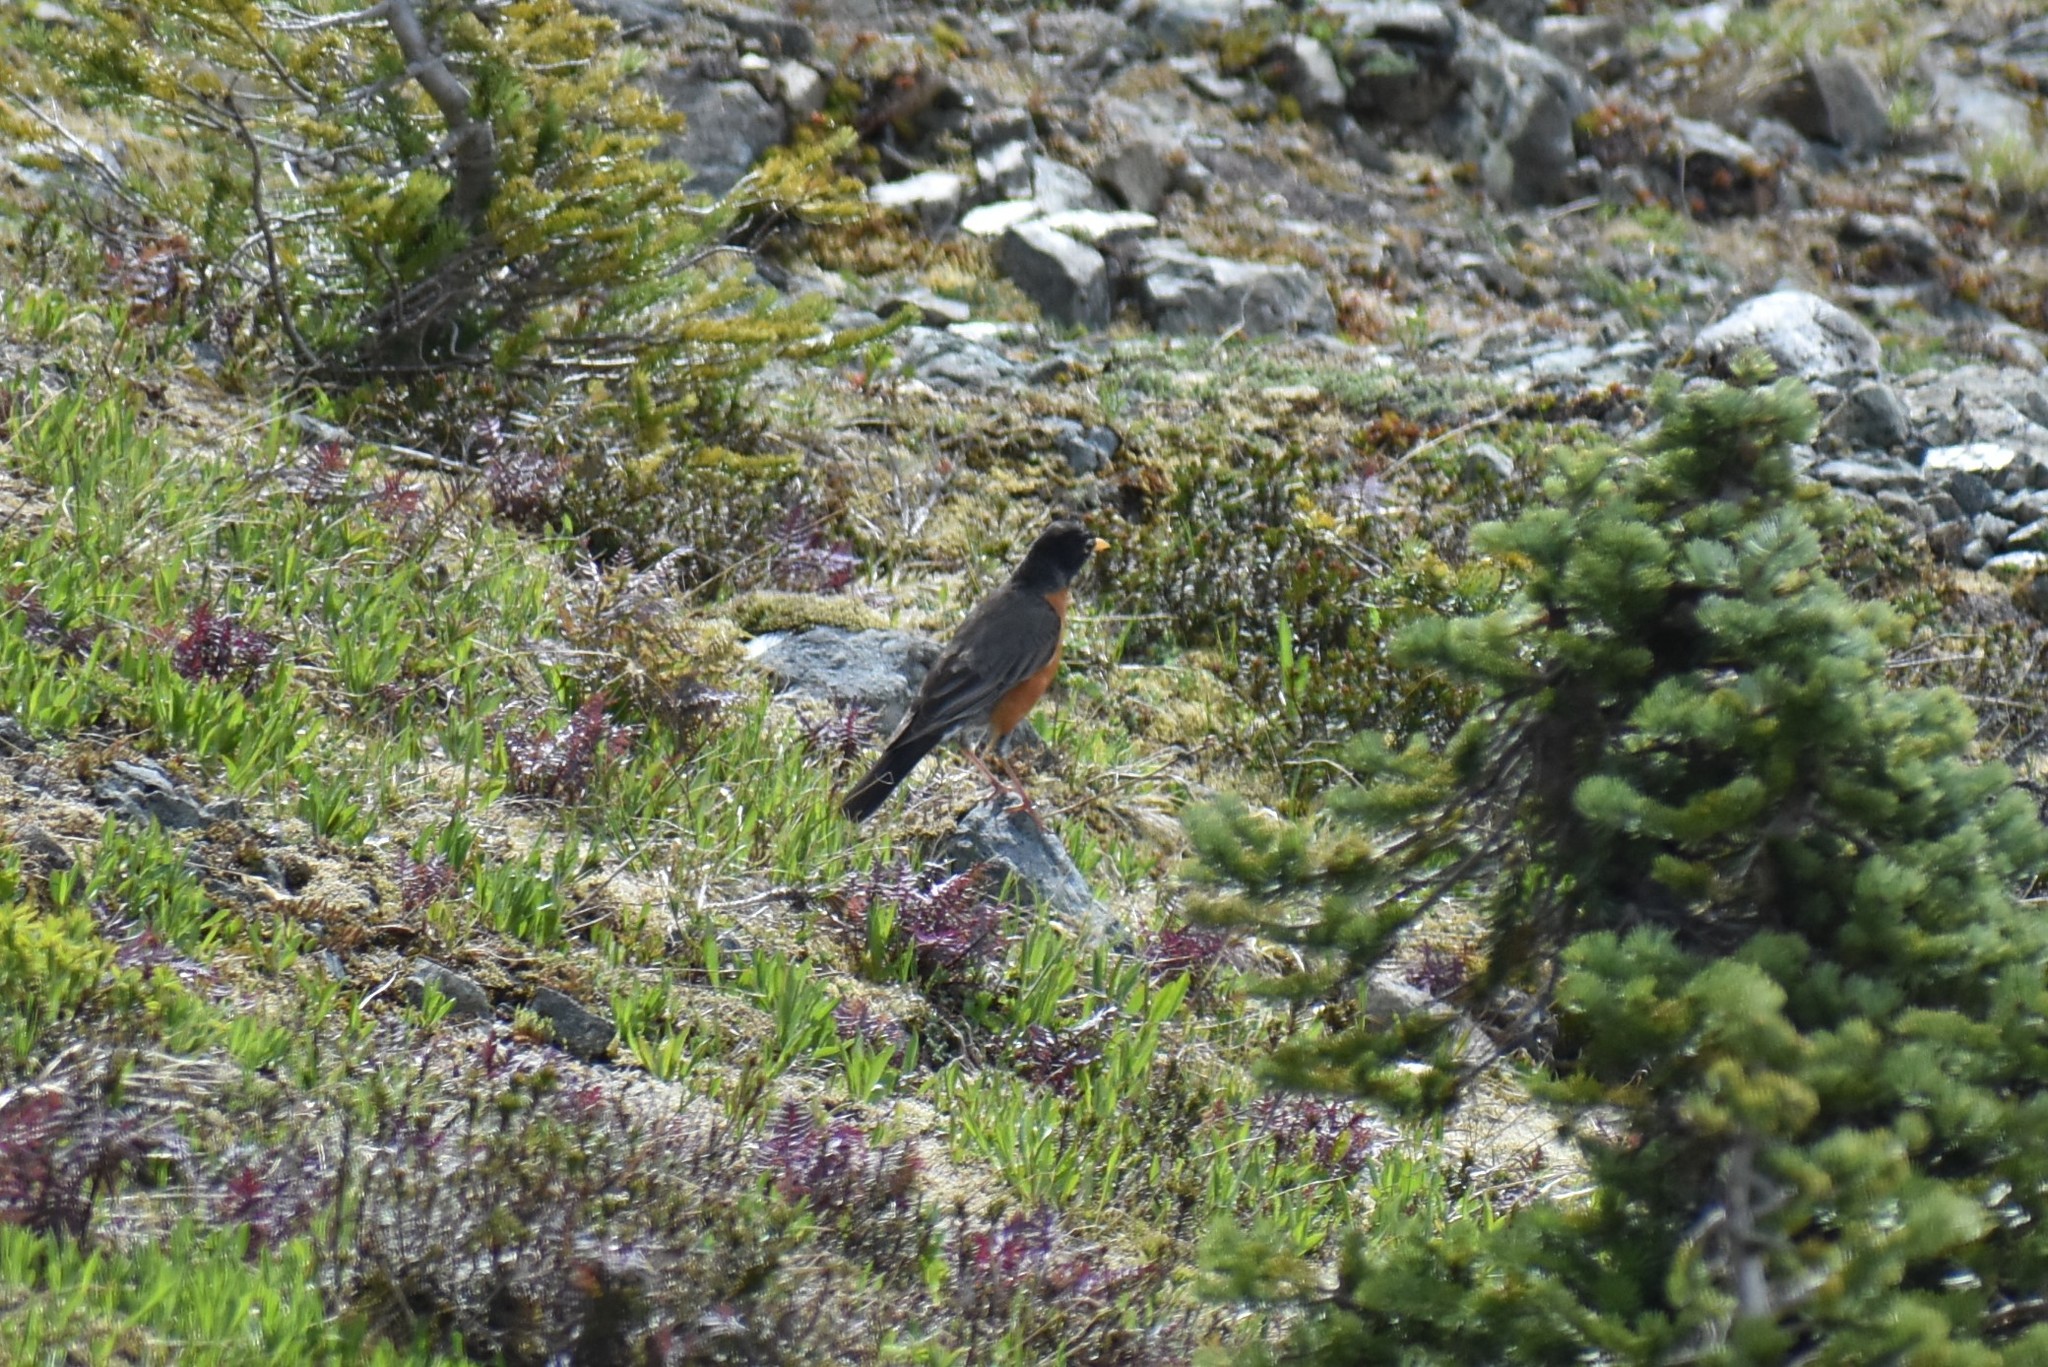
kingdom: Animalia
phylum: Chordata
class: Aves
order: Passeriformes
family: Turdidae
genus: Turdus
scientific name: Turdus migratorius
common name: American robin
